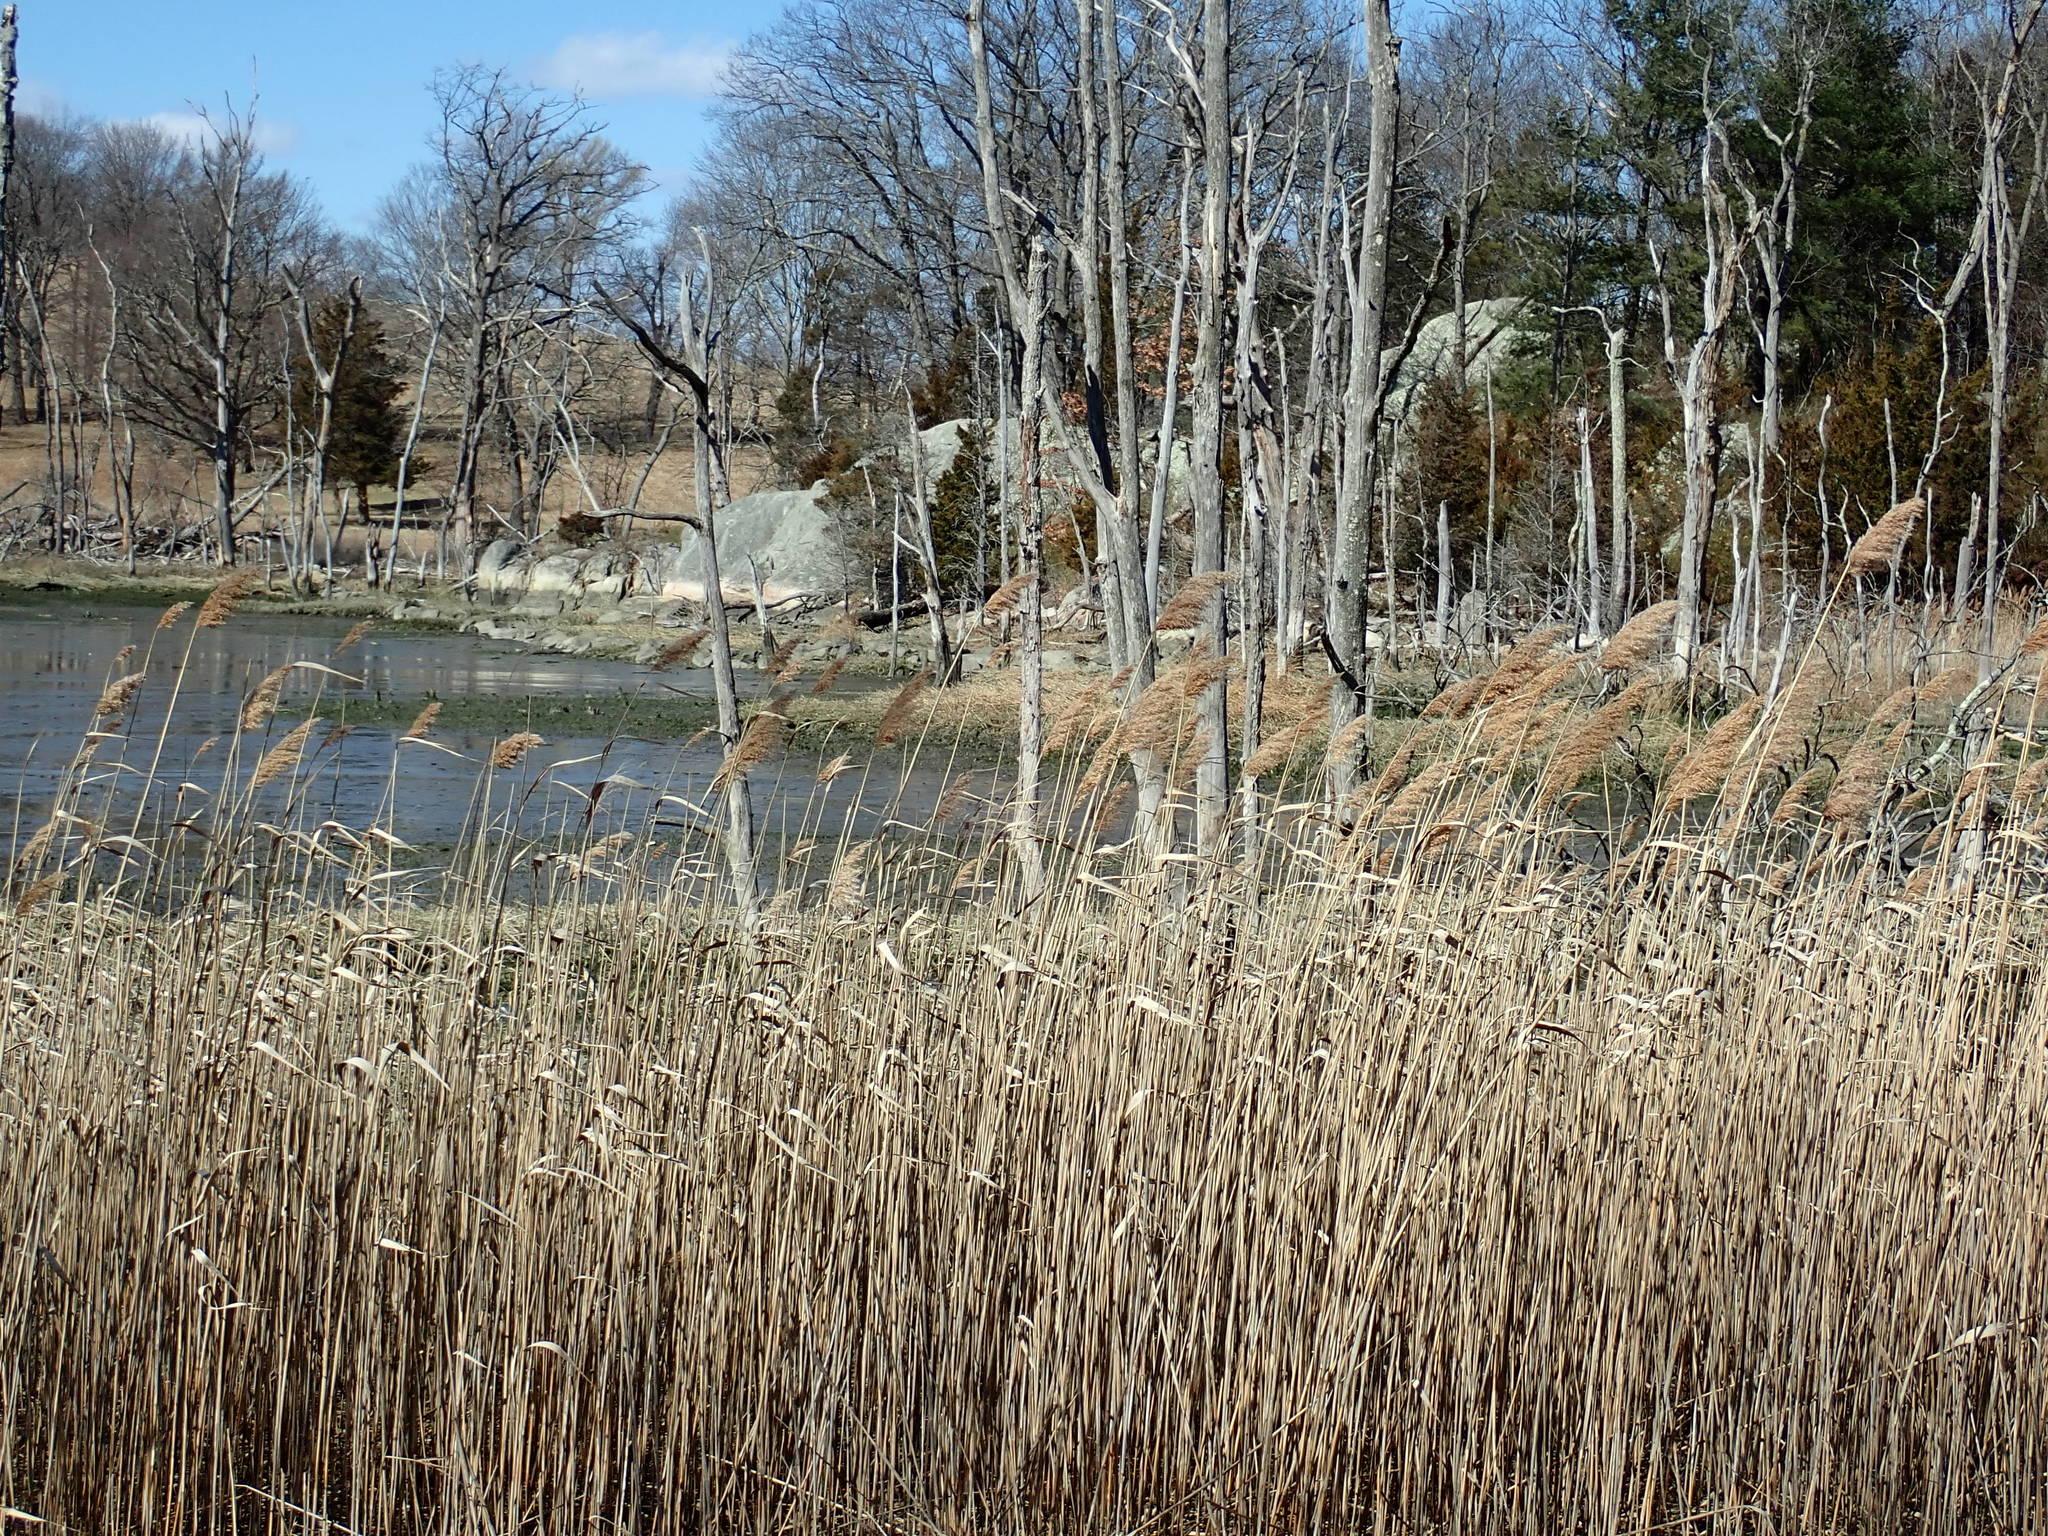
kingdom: Plantae
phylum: Tracheophyta
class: Liliopsida
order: Poales
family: Poaceae
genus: Phragmites
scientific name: Phragmites australis
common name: Common reed
